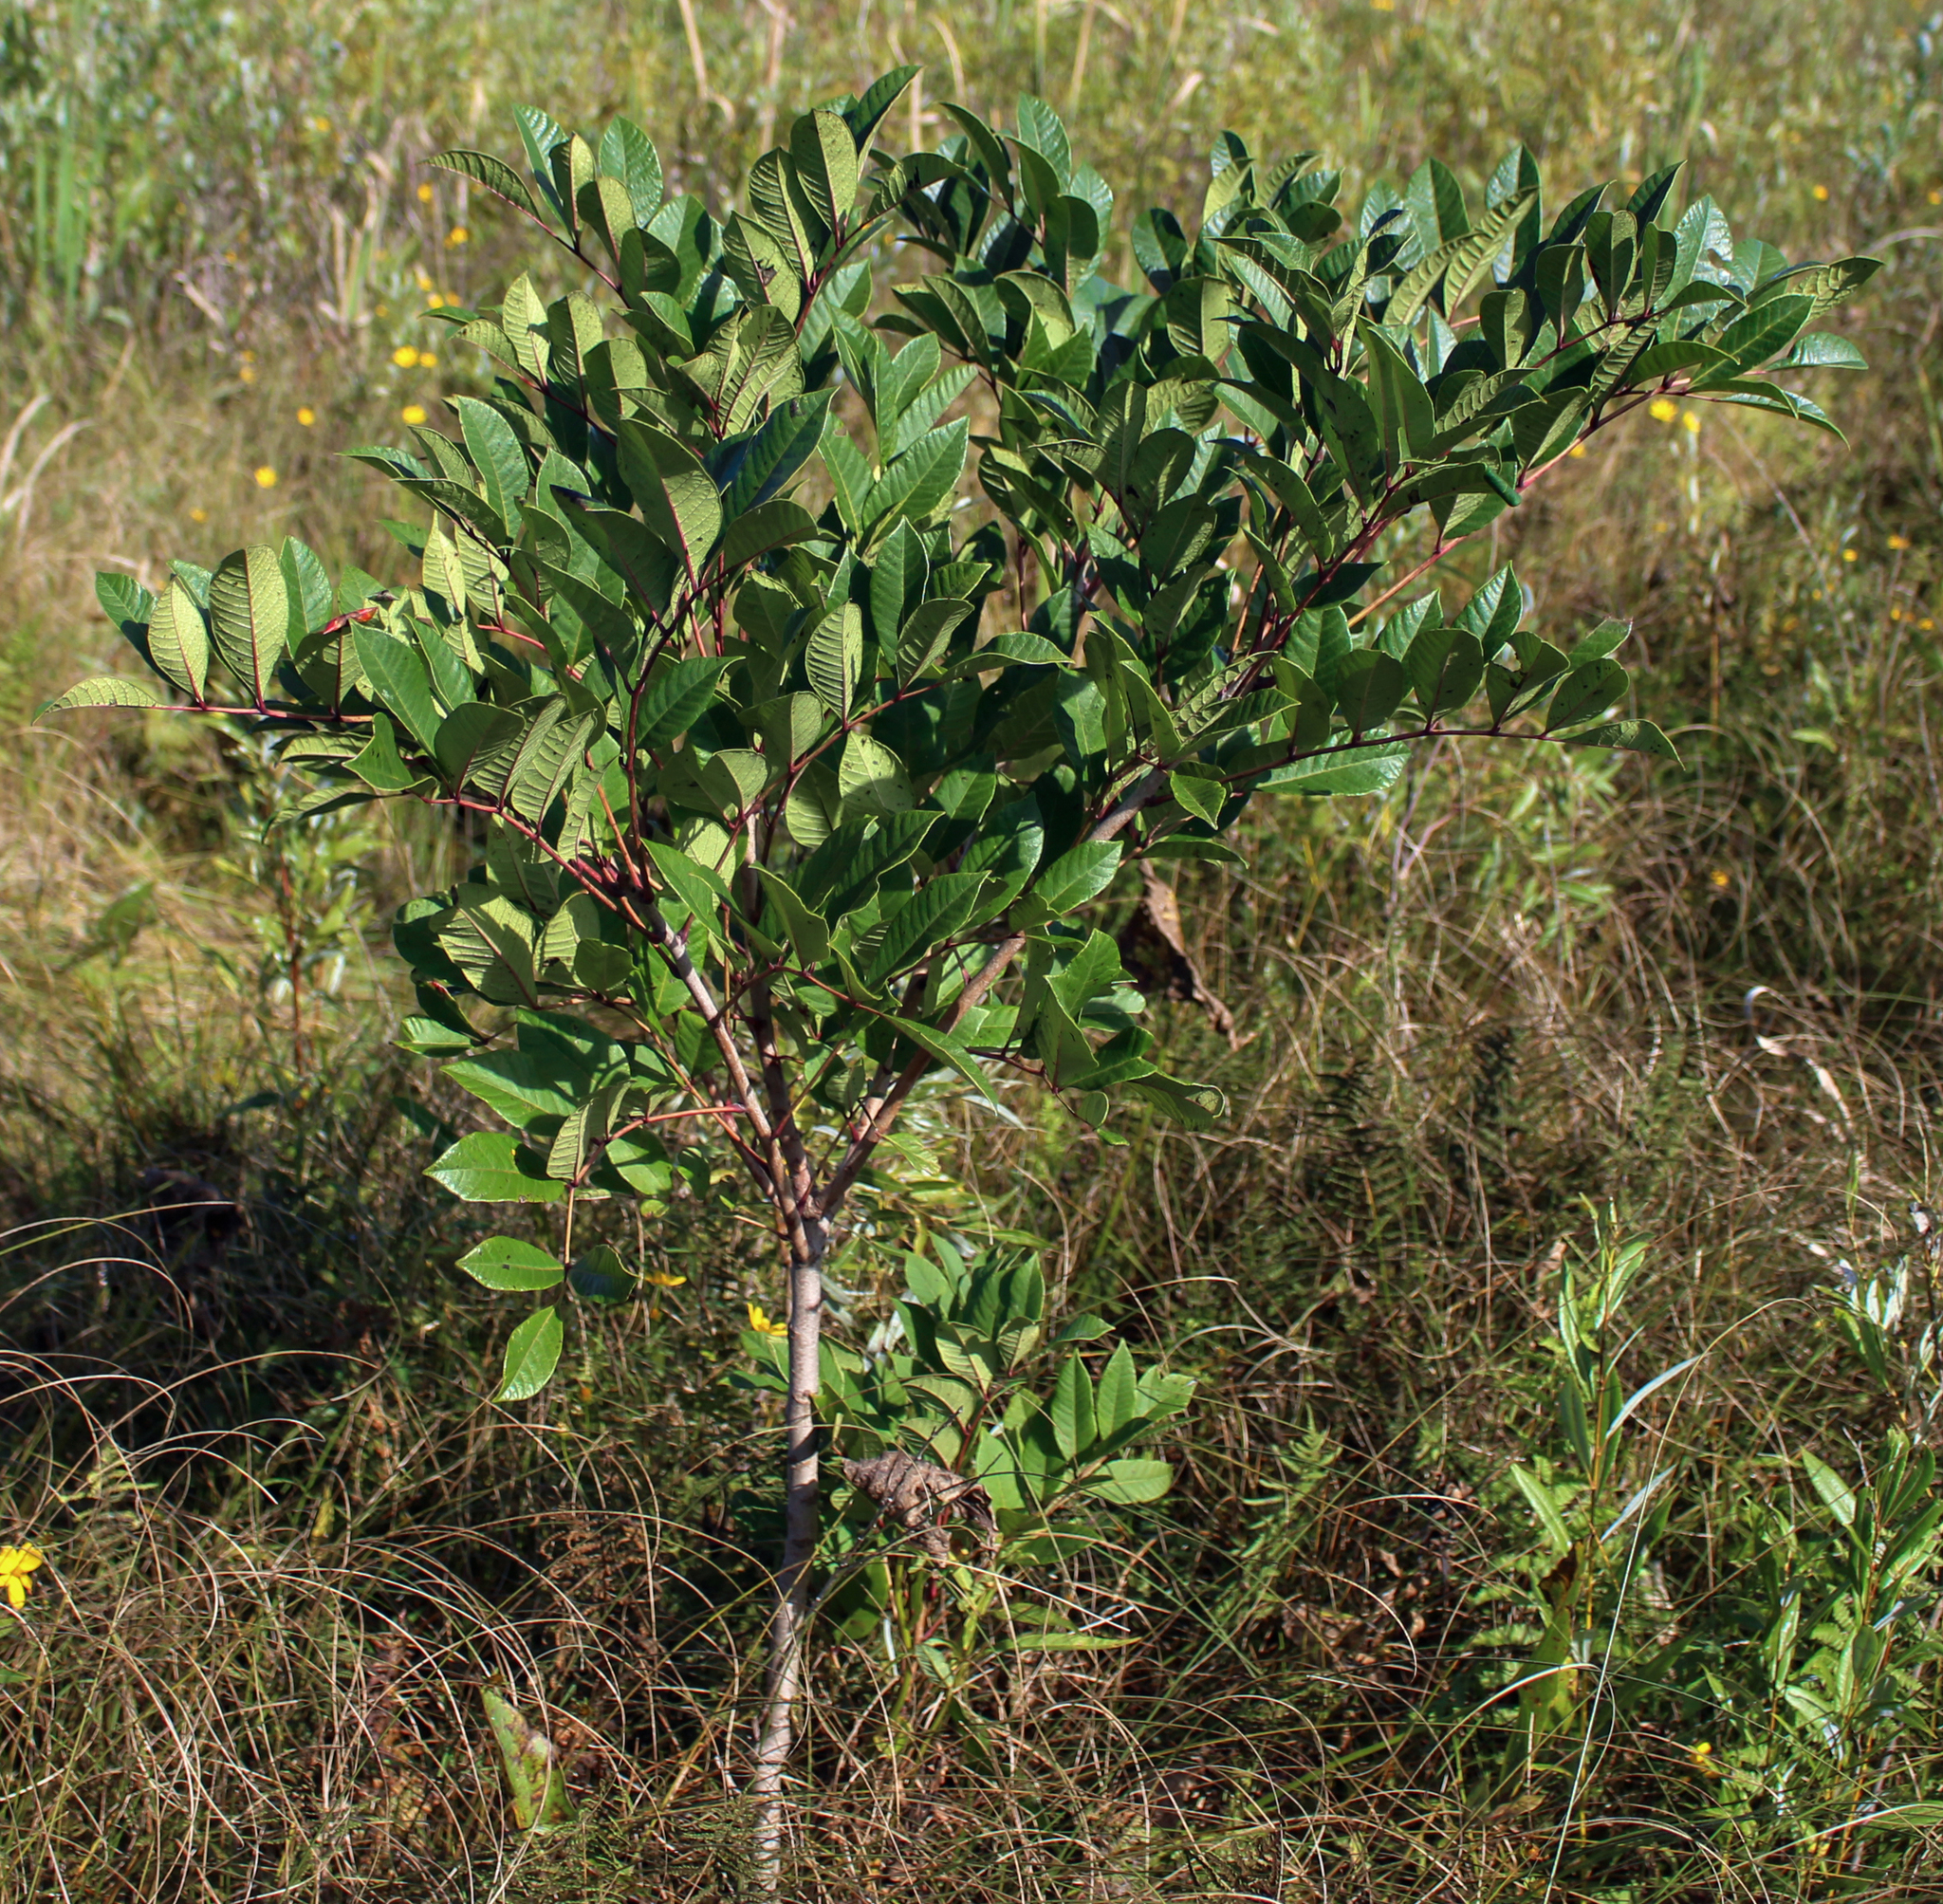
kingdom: Plantae
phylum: Tracheophyta
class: Magnoliopsida
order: Sapindales
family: Anacardiaceae
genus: Toxicodendron
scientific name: Toxicodendron vernix
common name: Poison sumac
